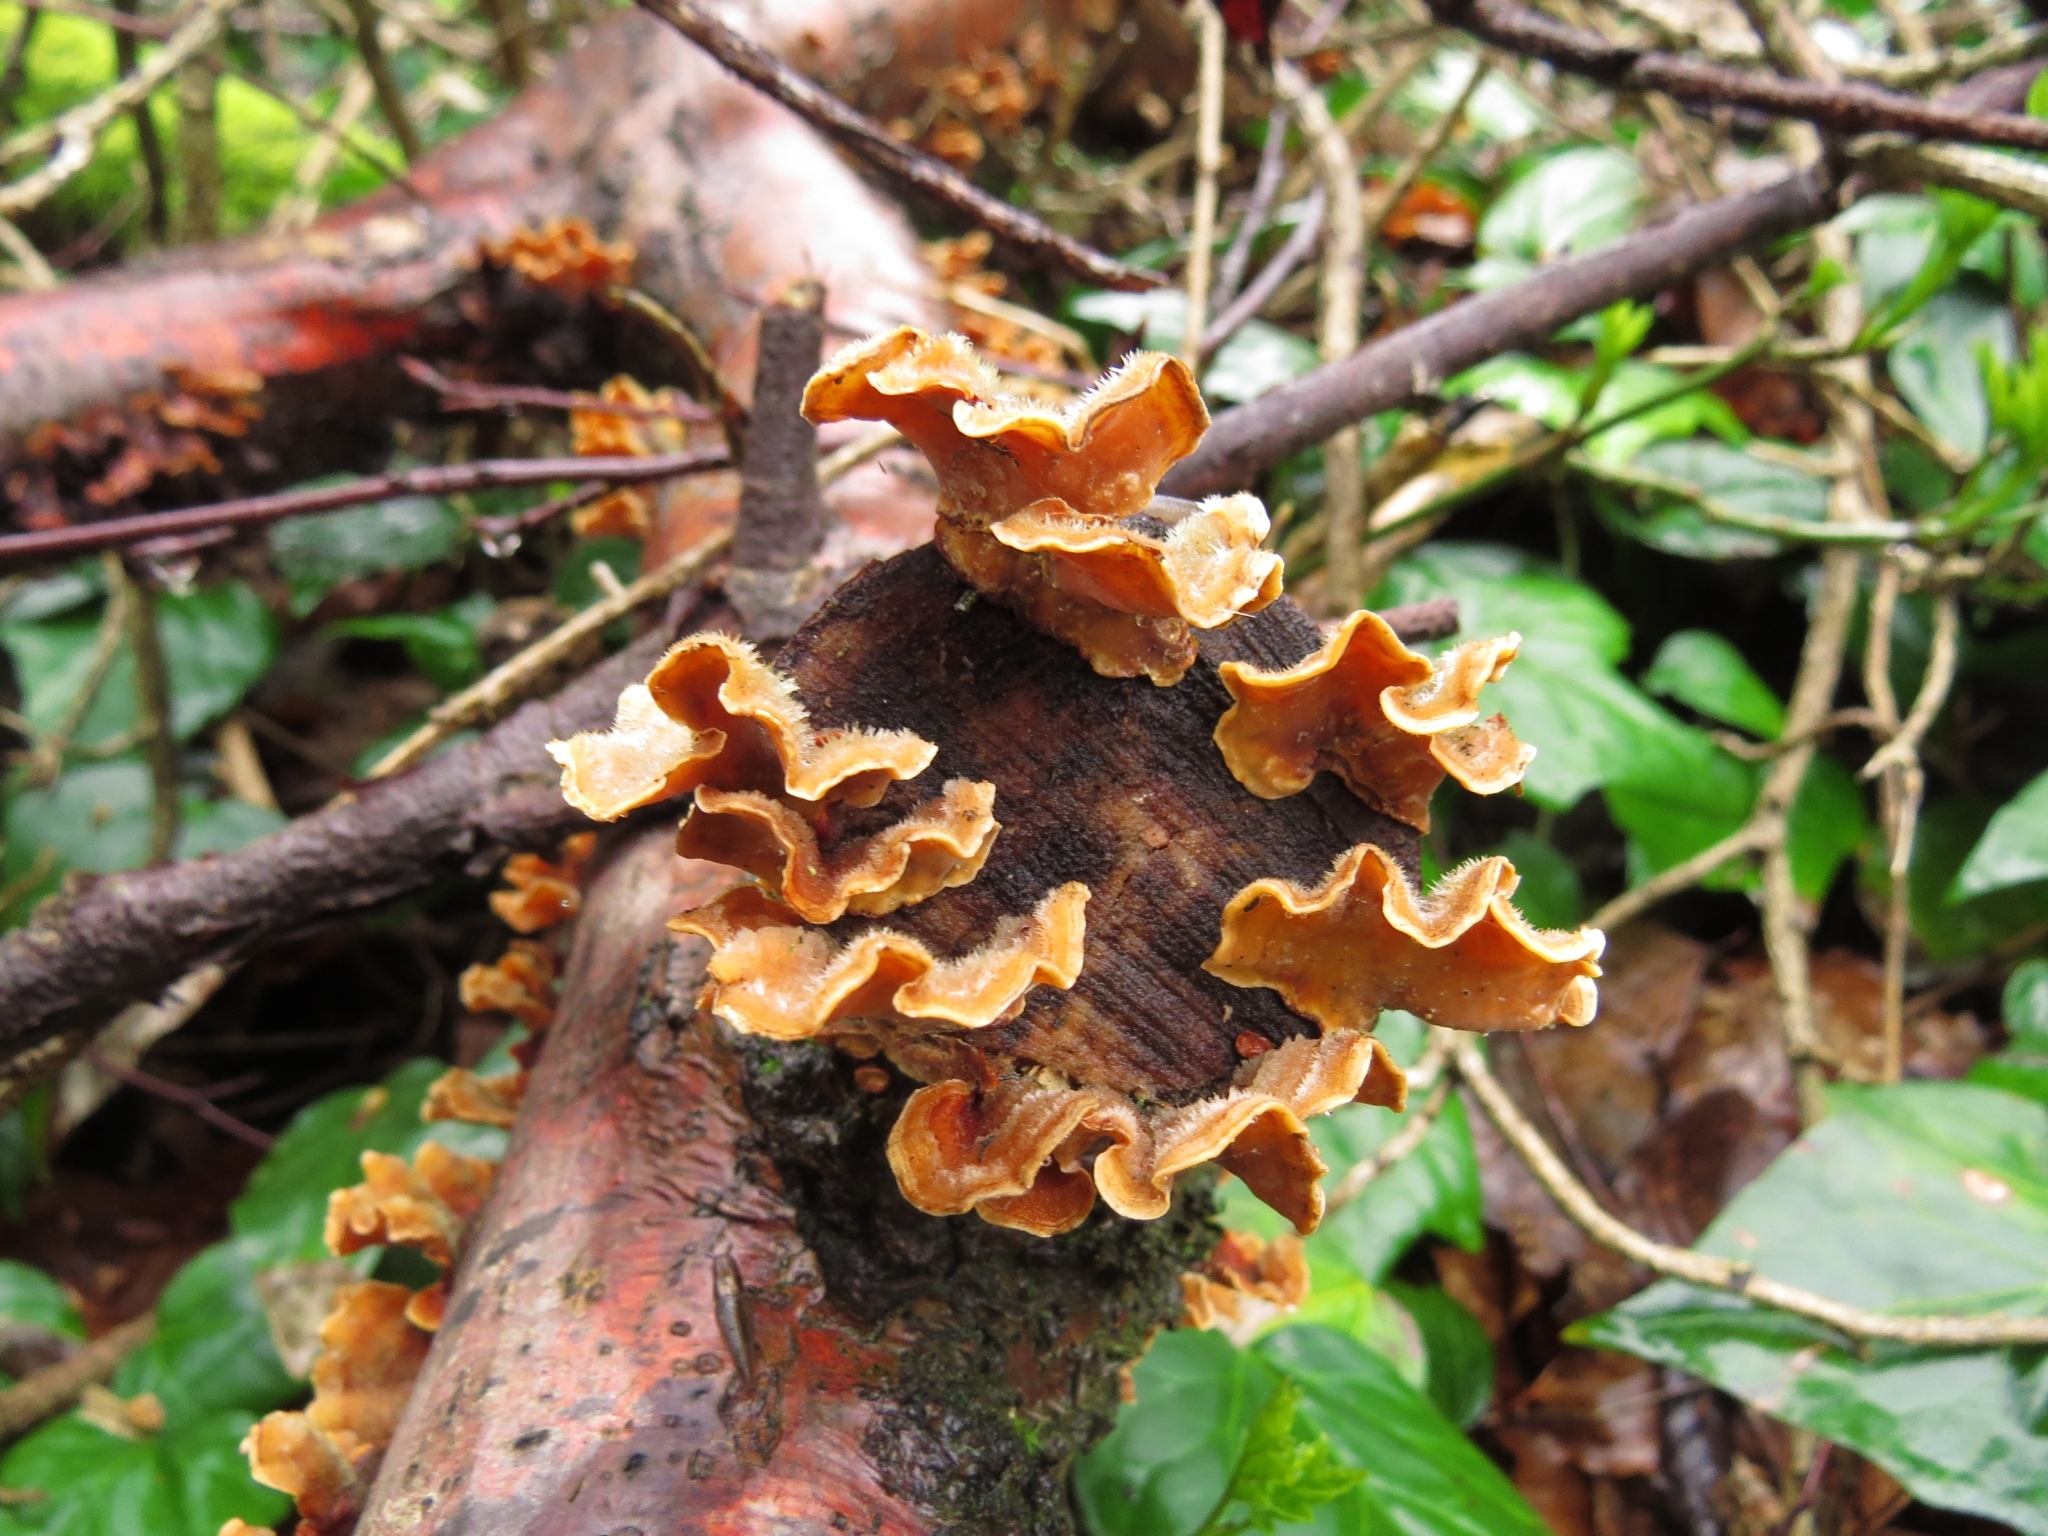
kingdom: Fungi
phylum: Basidiomycota
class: Agaricomycetes
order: Russulales
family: Stereaceae
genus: Stereum
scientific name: Stereum hirsutum
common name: Hairy curtain crust
